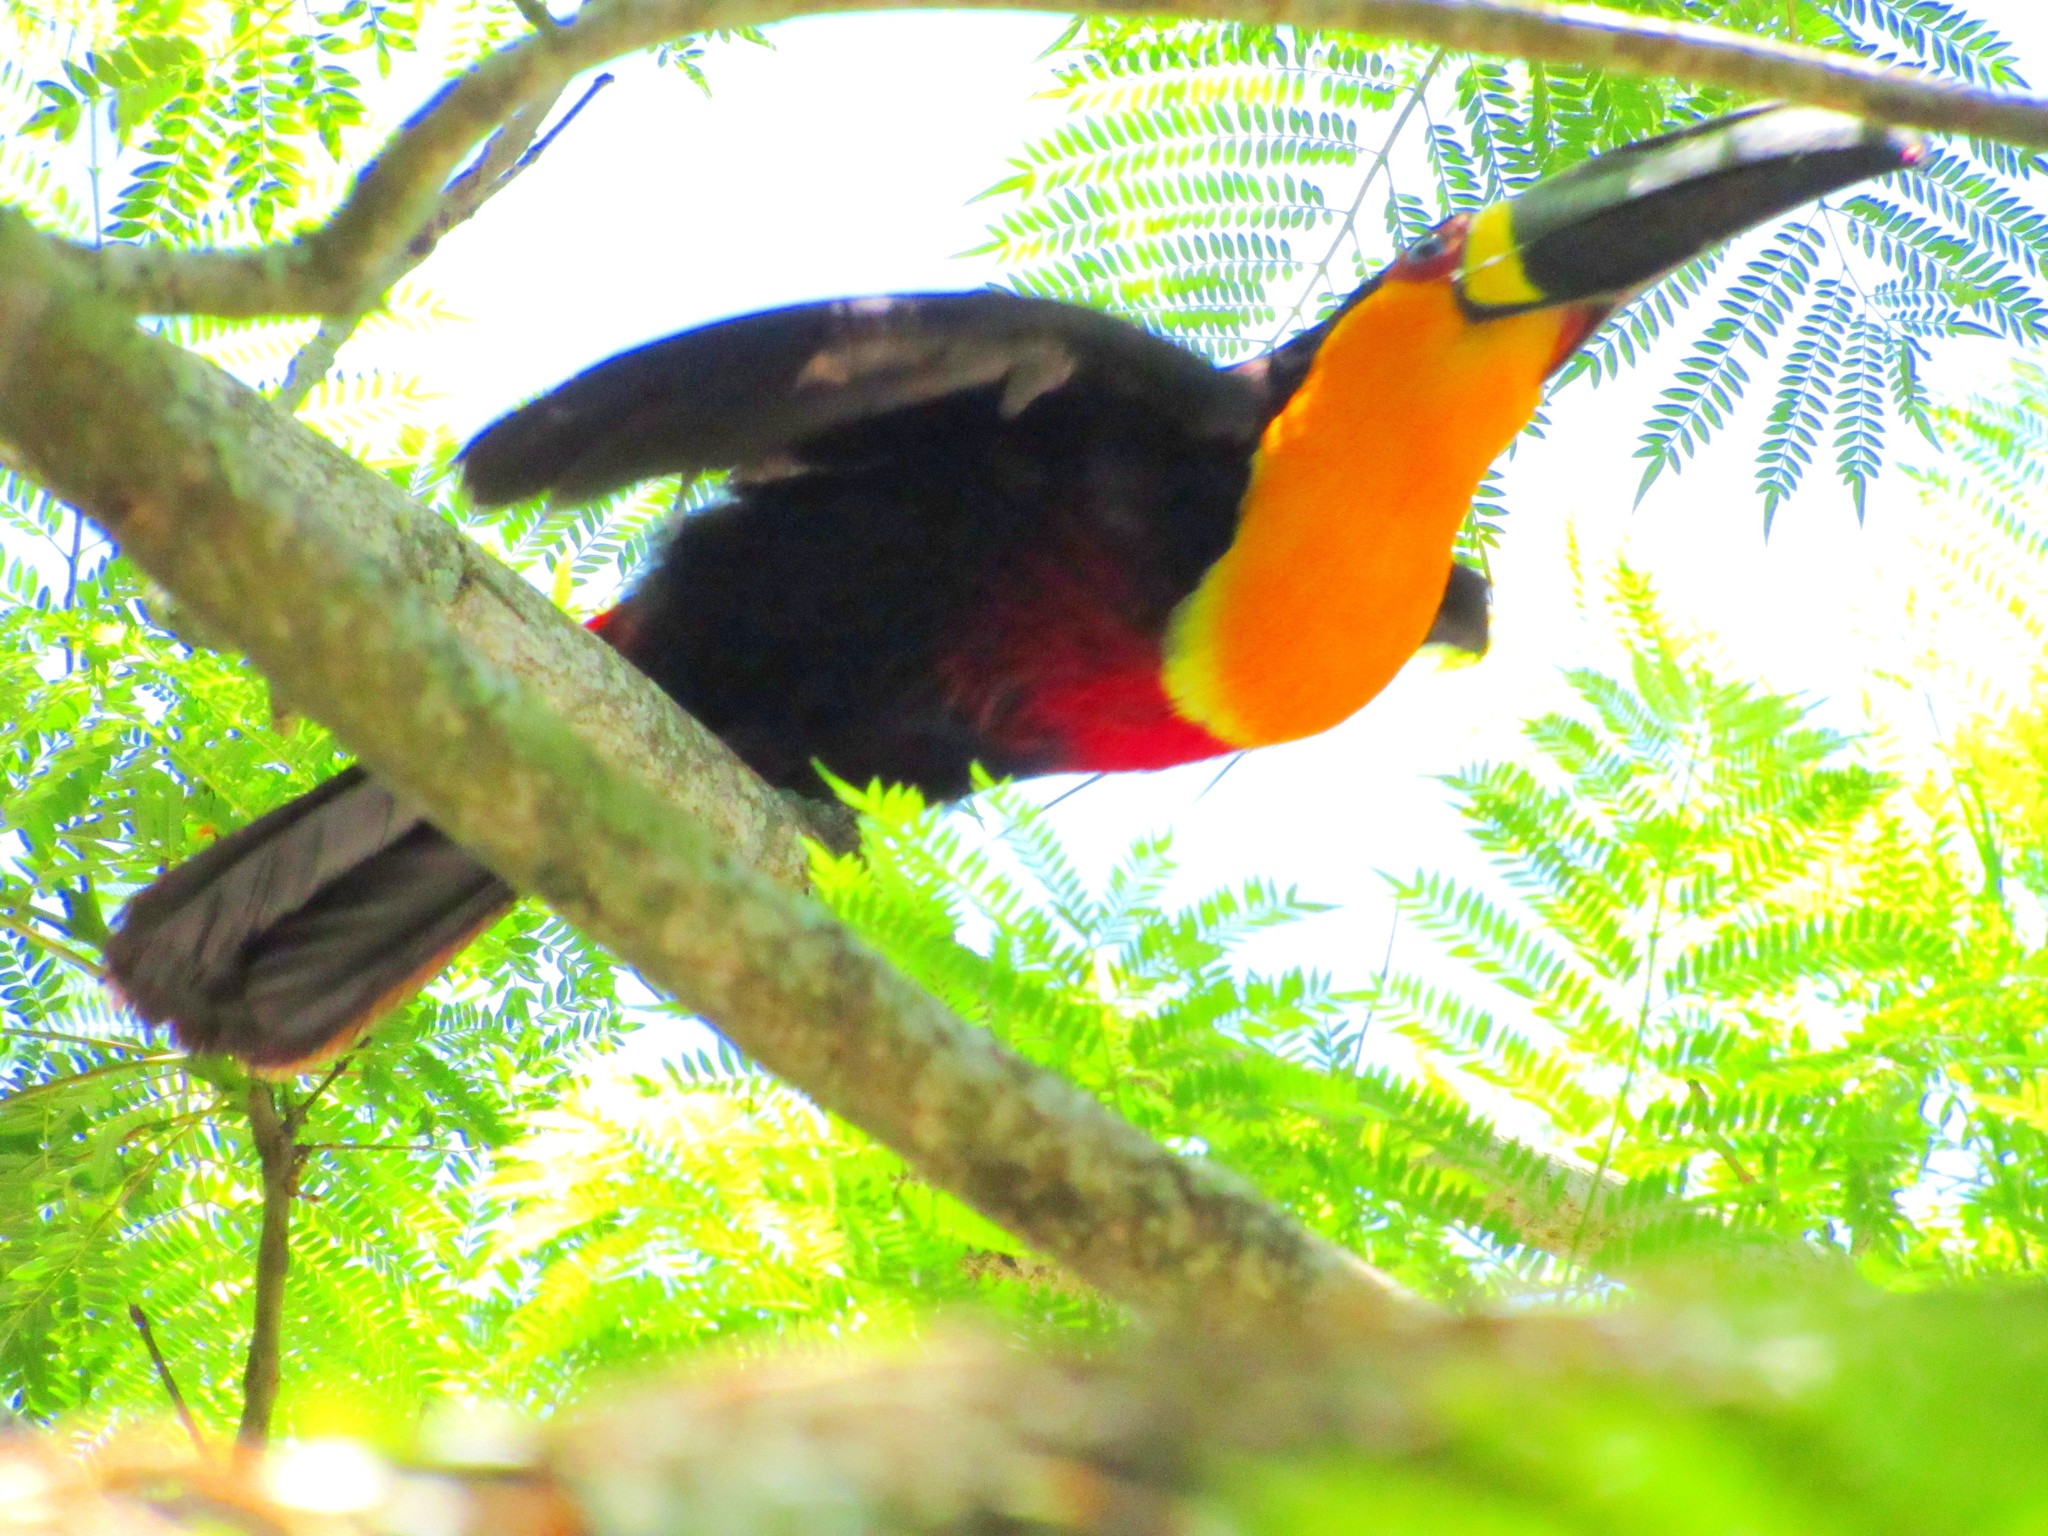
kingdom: Animalia
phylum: Chordata
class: Aves
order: Piciformes
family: Ramphastidae
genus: Ramphastos
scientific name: Ramphastos vitellinus
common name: Channel-billed toucan
